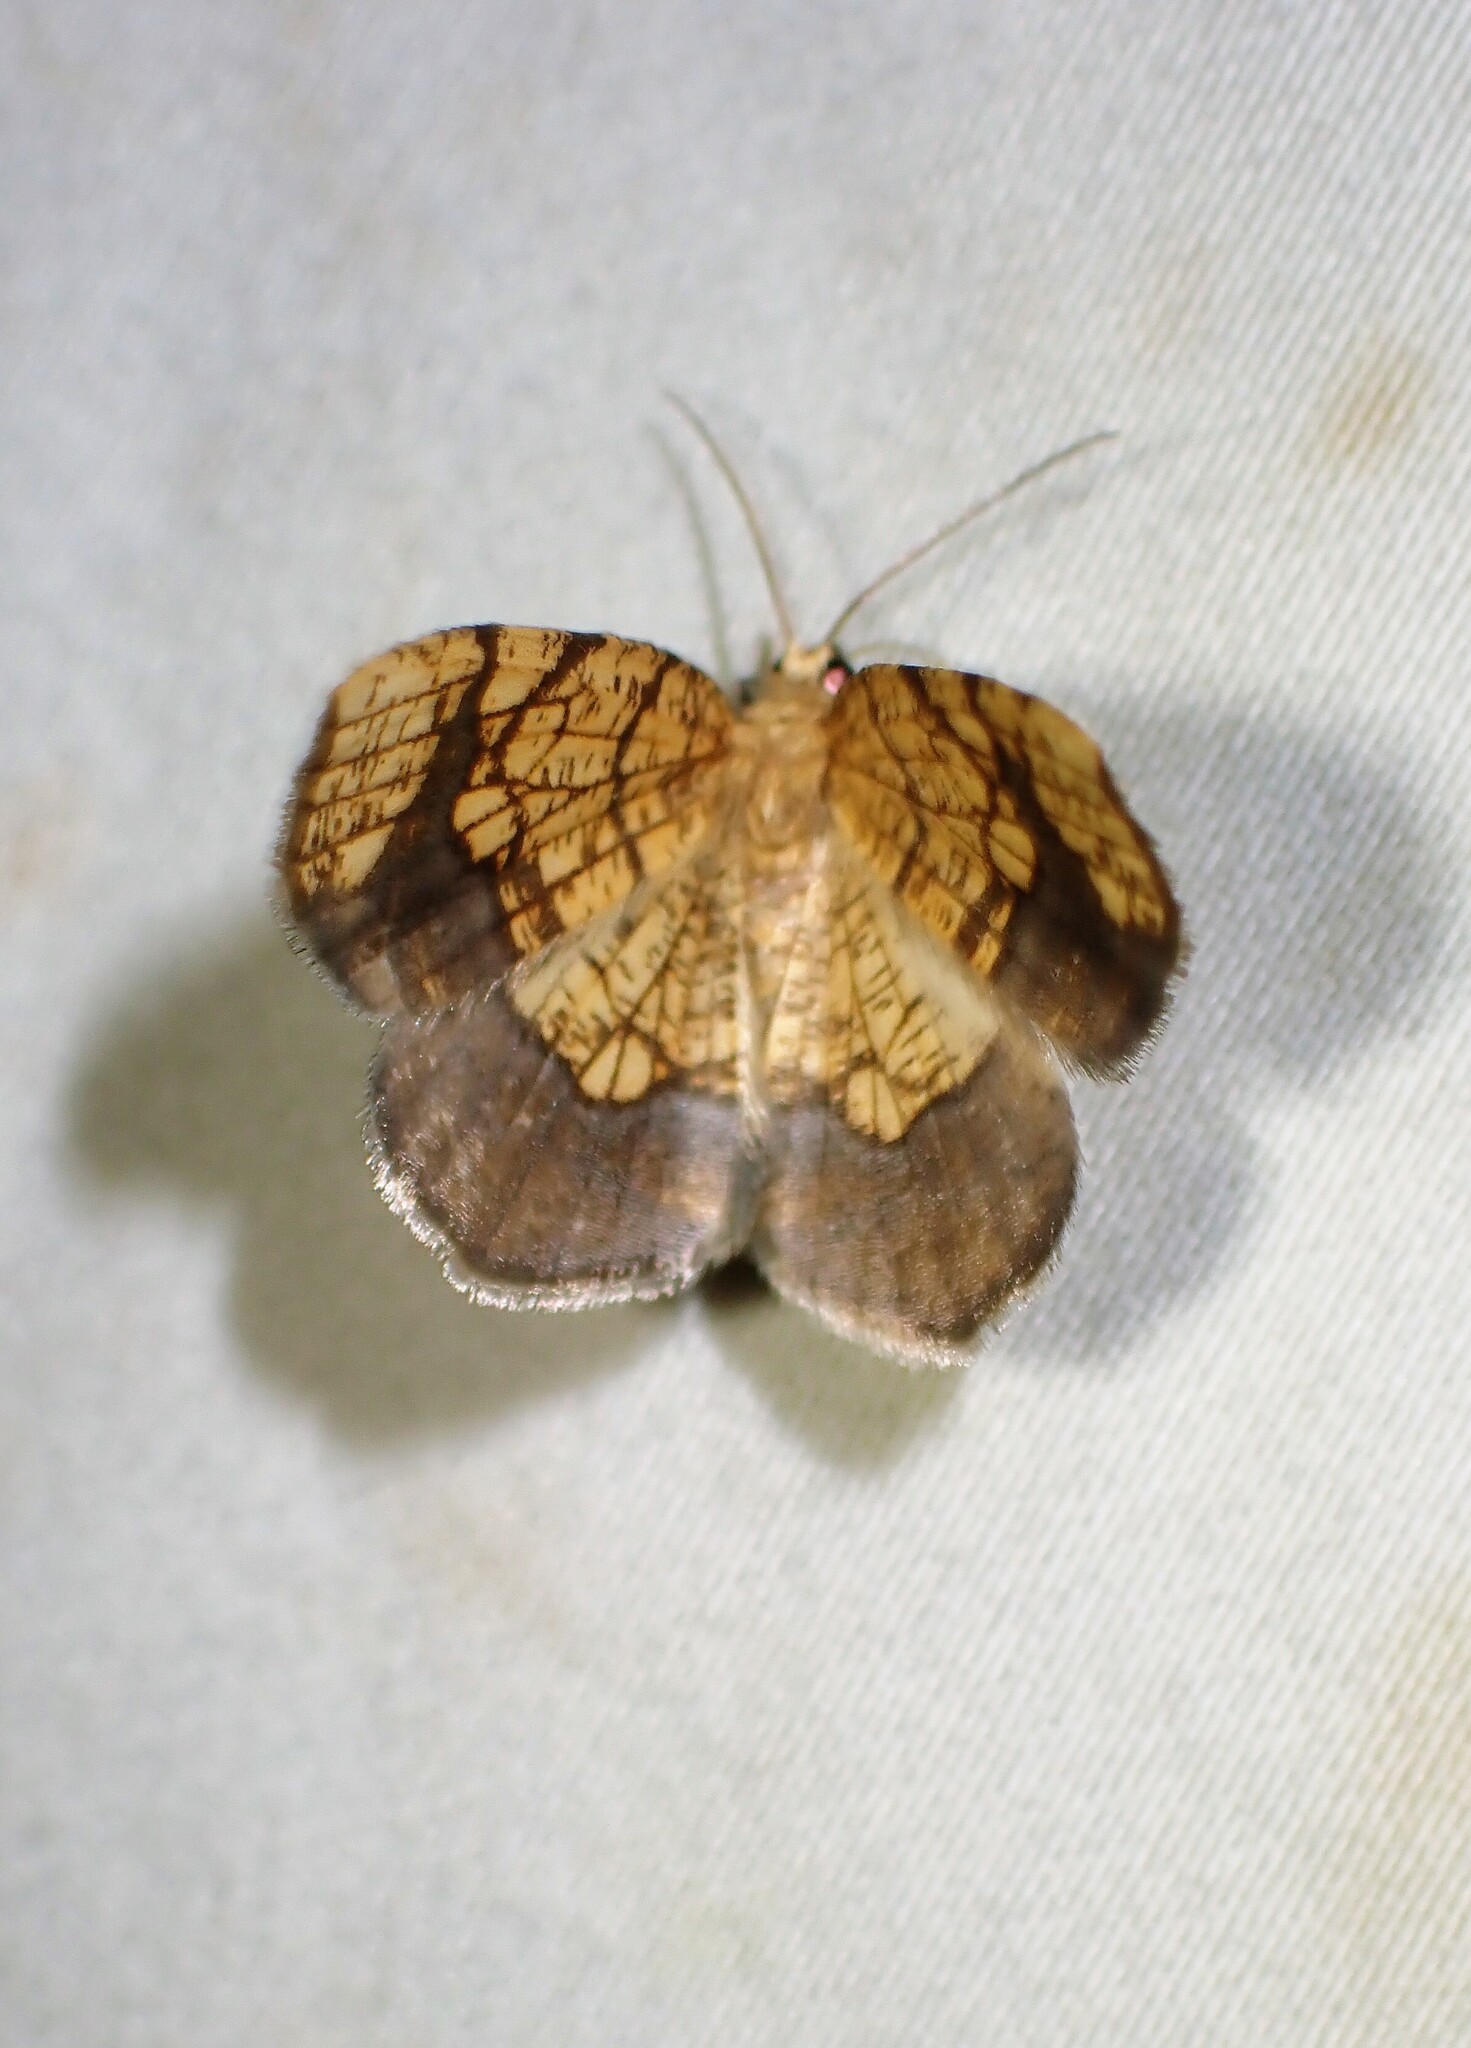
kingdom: Animalia
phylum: Arthropoda
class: Insecta
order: Lepidoptera
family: Geometridae
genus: Nematocampa
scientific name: Nematocampa resistaria
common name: Horned spanworm moth
